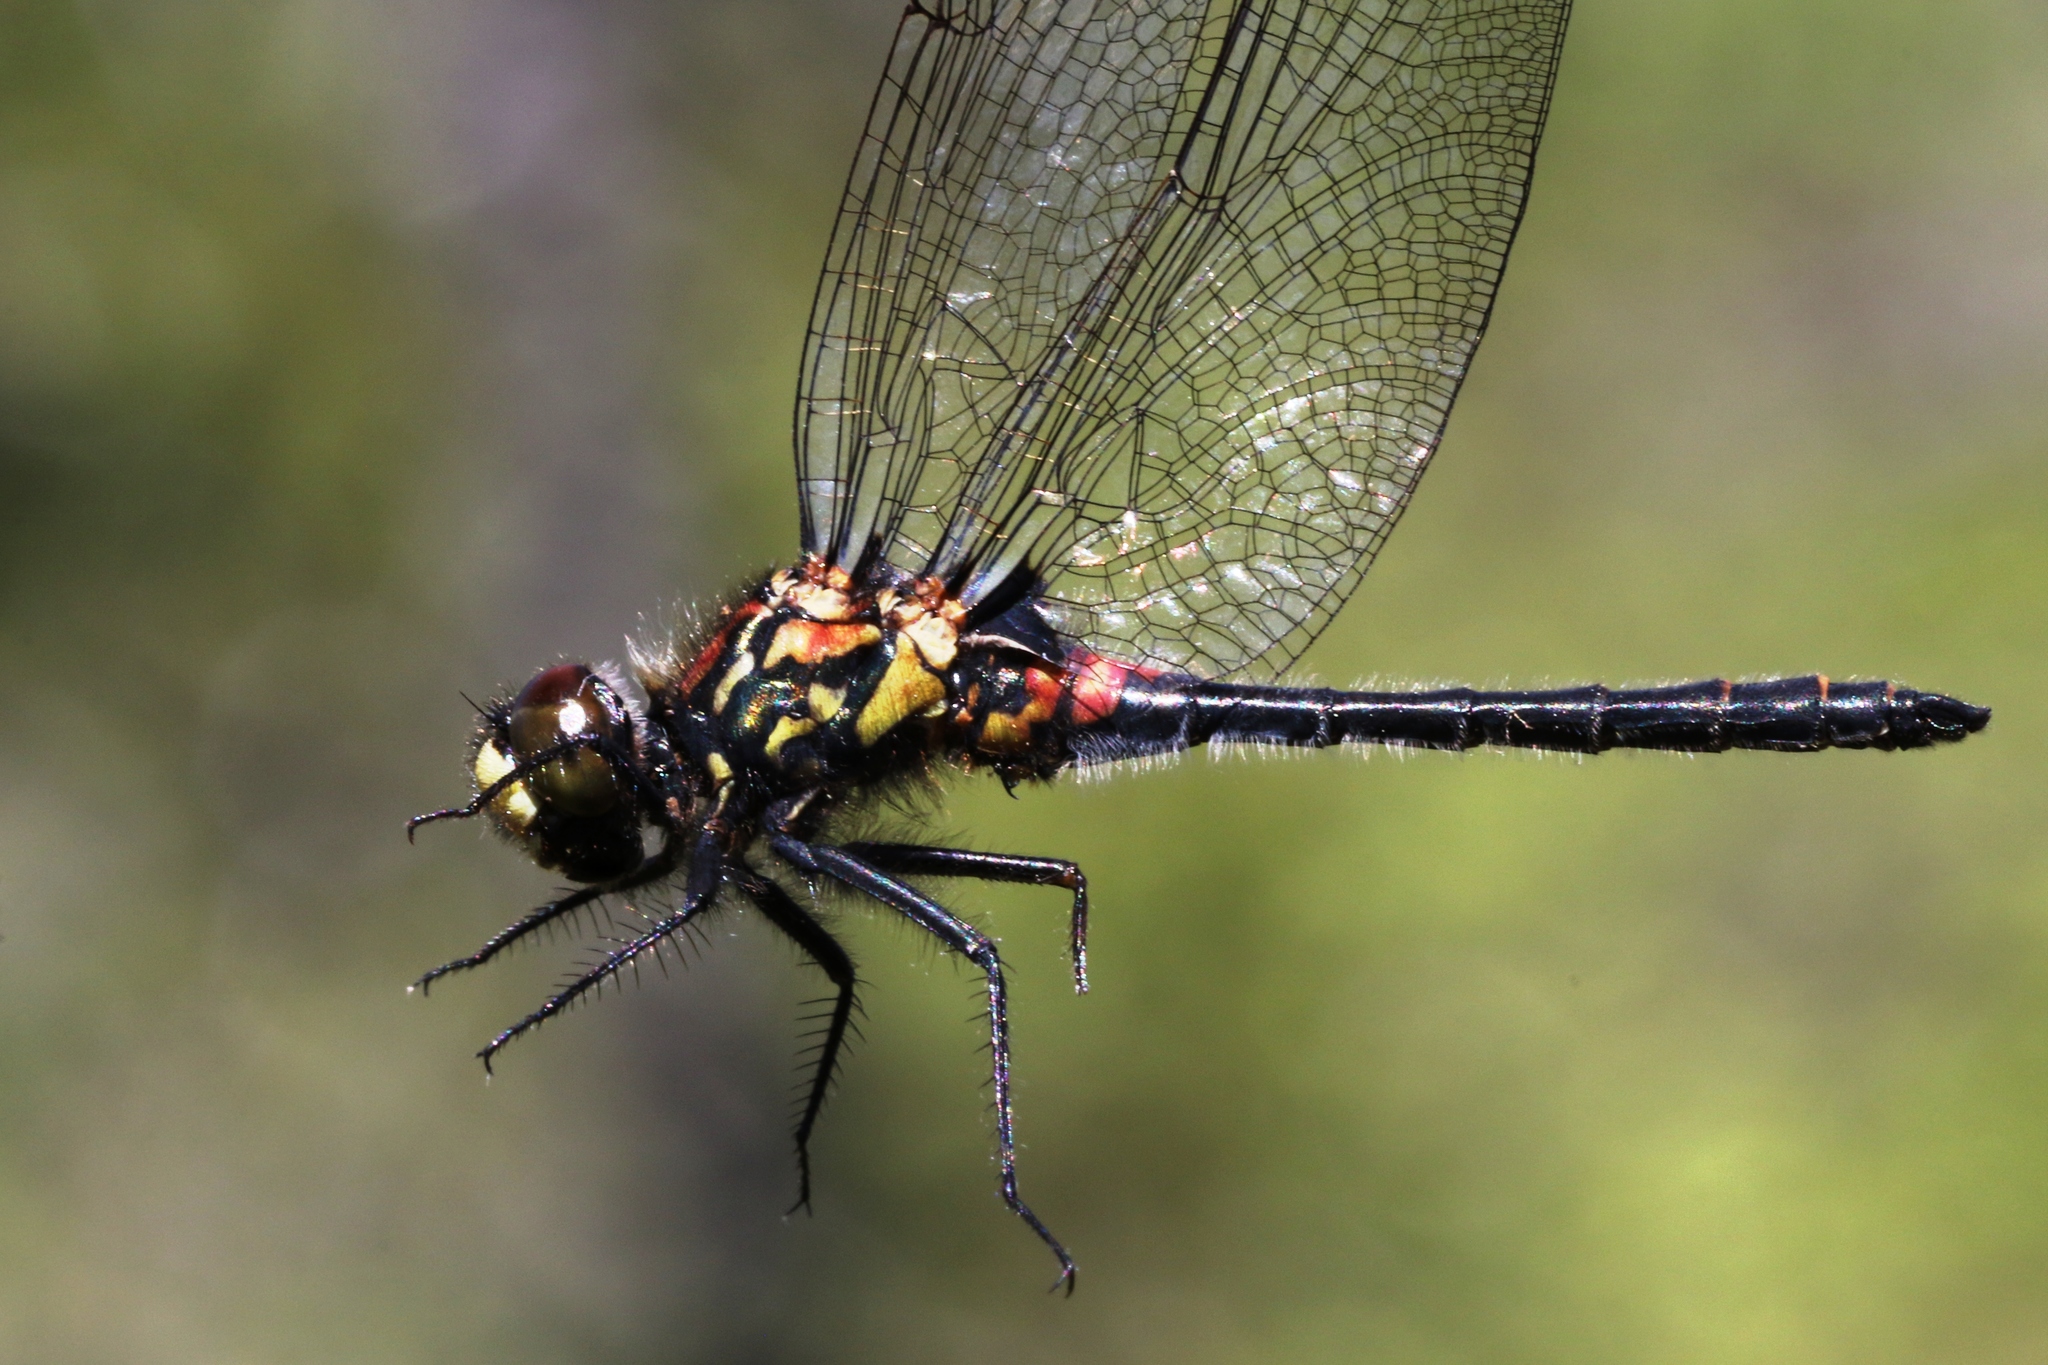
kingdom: Animalia
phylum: Arthropoda
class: Insecta
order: Odonata
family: Libellulidae
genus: Leucorrhinia
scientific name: Leucorrhinia patricia
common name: Canada whiteface
